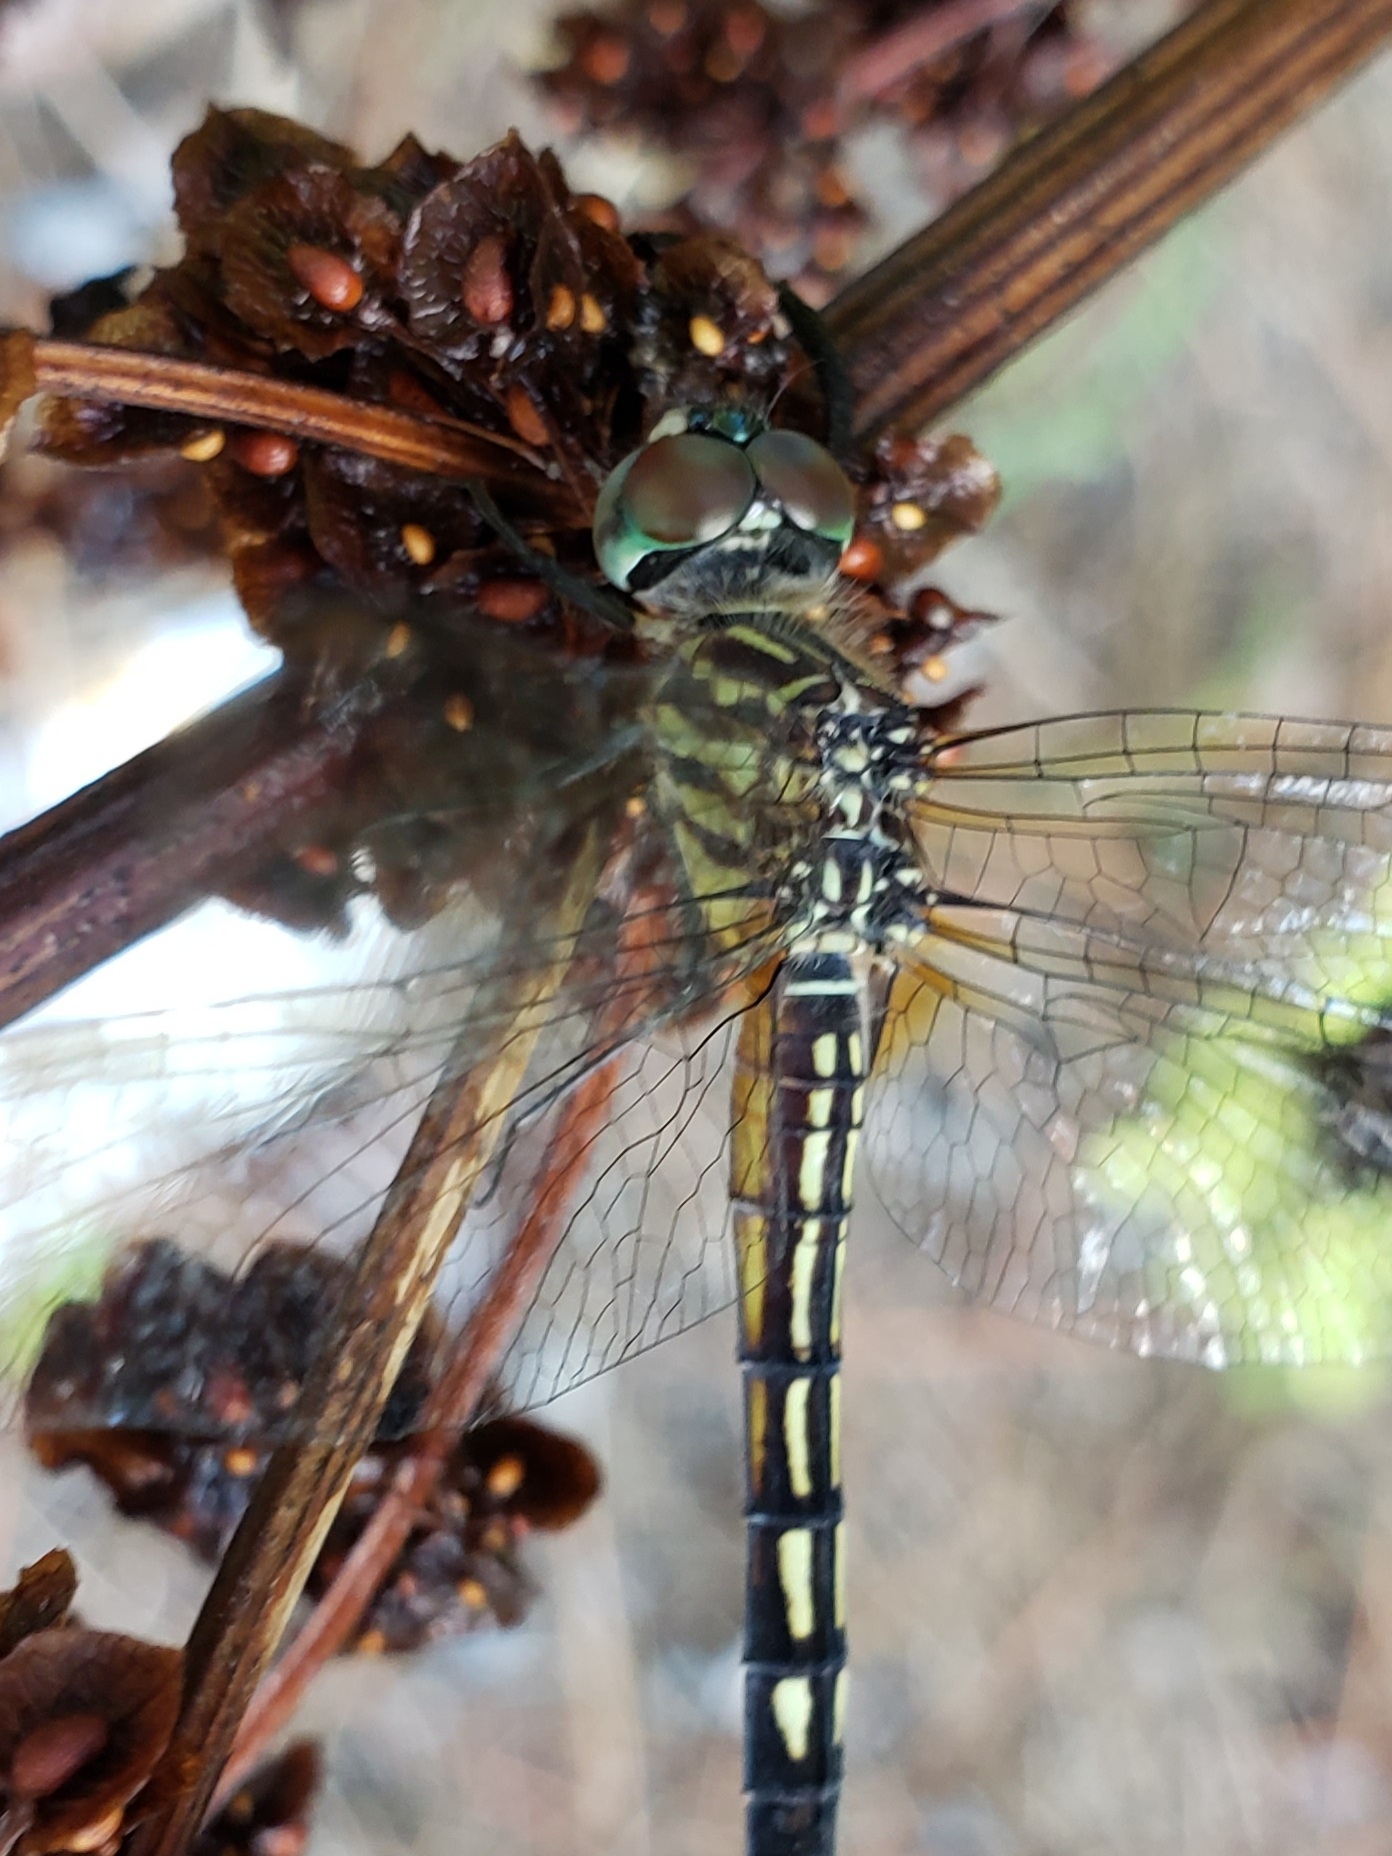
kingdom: Animalia
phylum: Arthropoda
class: Insecta
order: Odonata
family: Libellulidae
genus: Pachydiplax
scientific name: Pachydiplax longipennis
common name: Blue dasher
